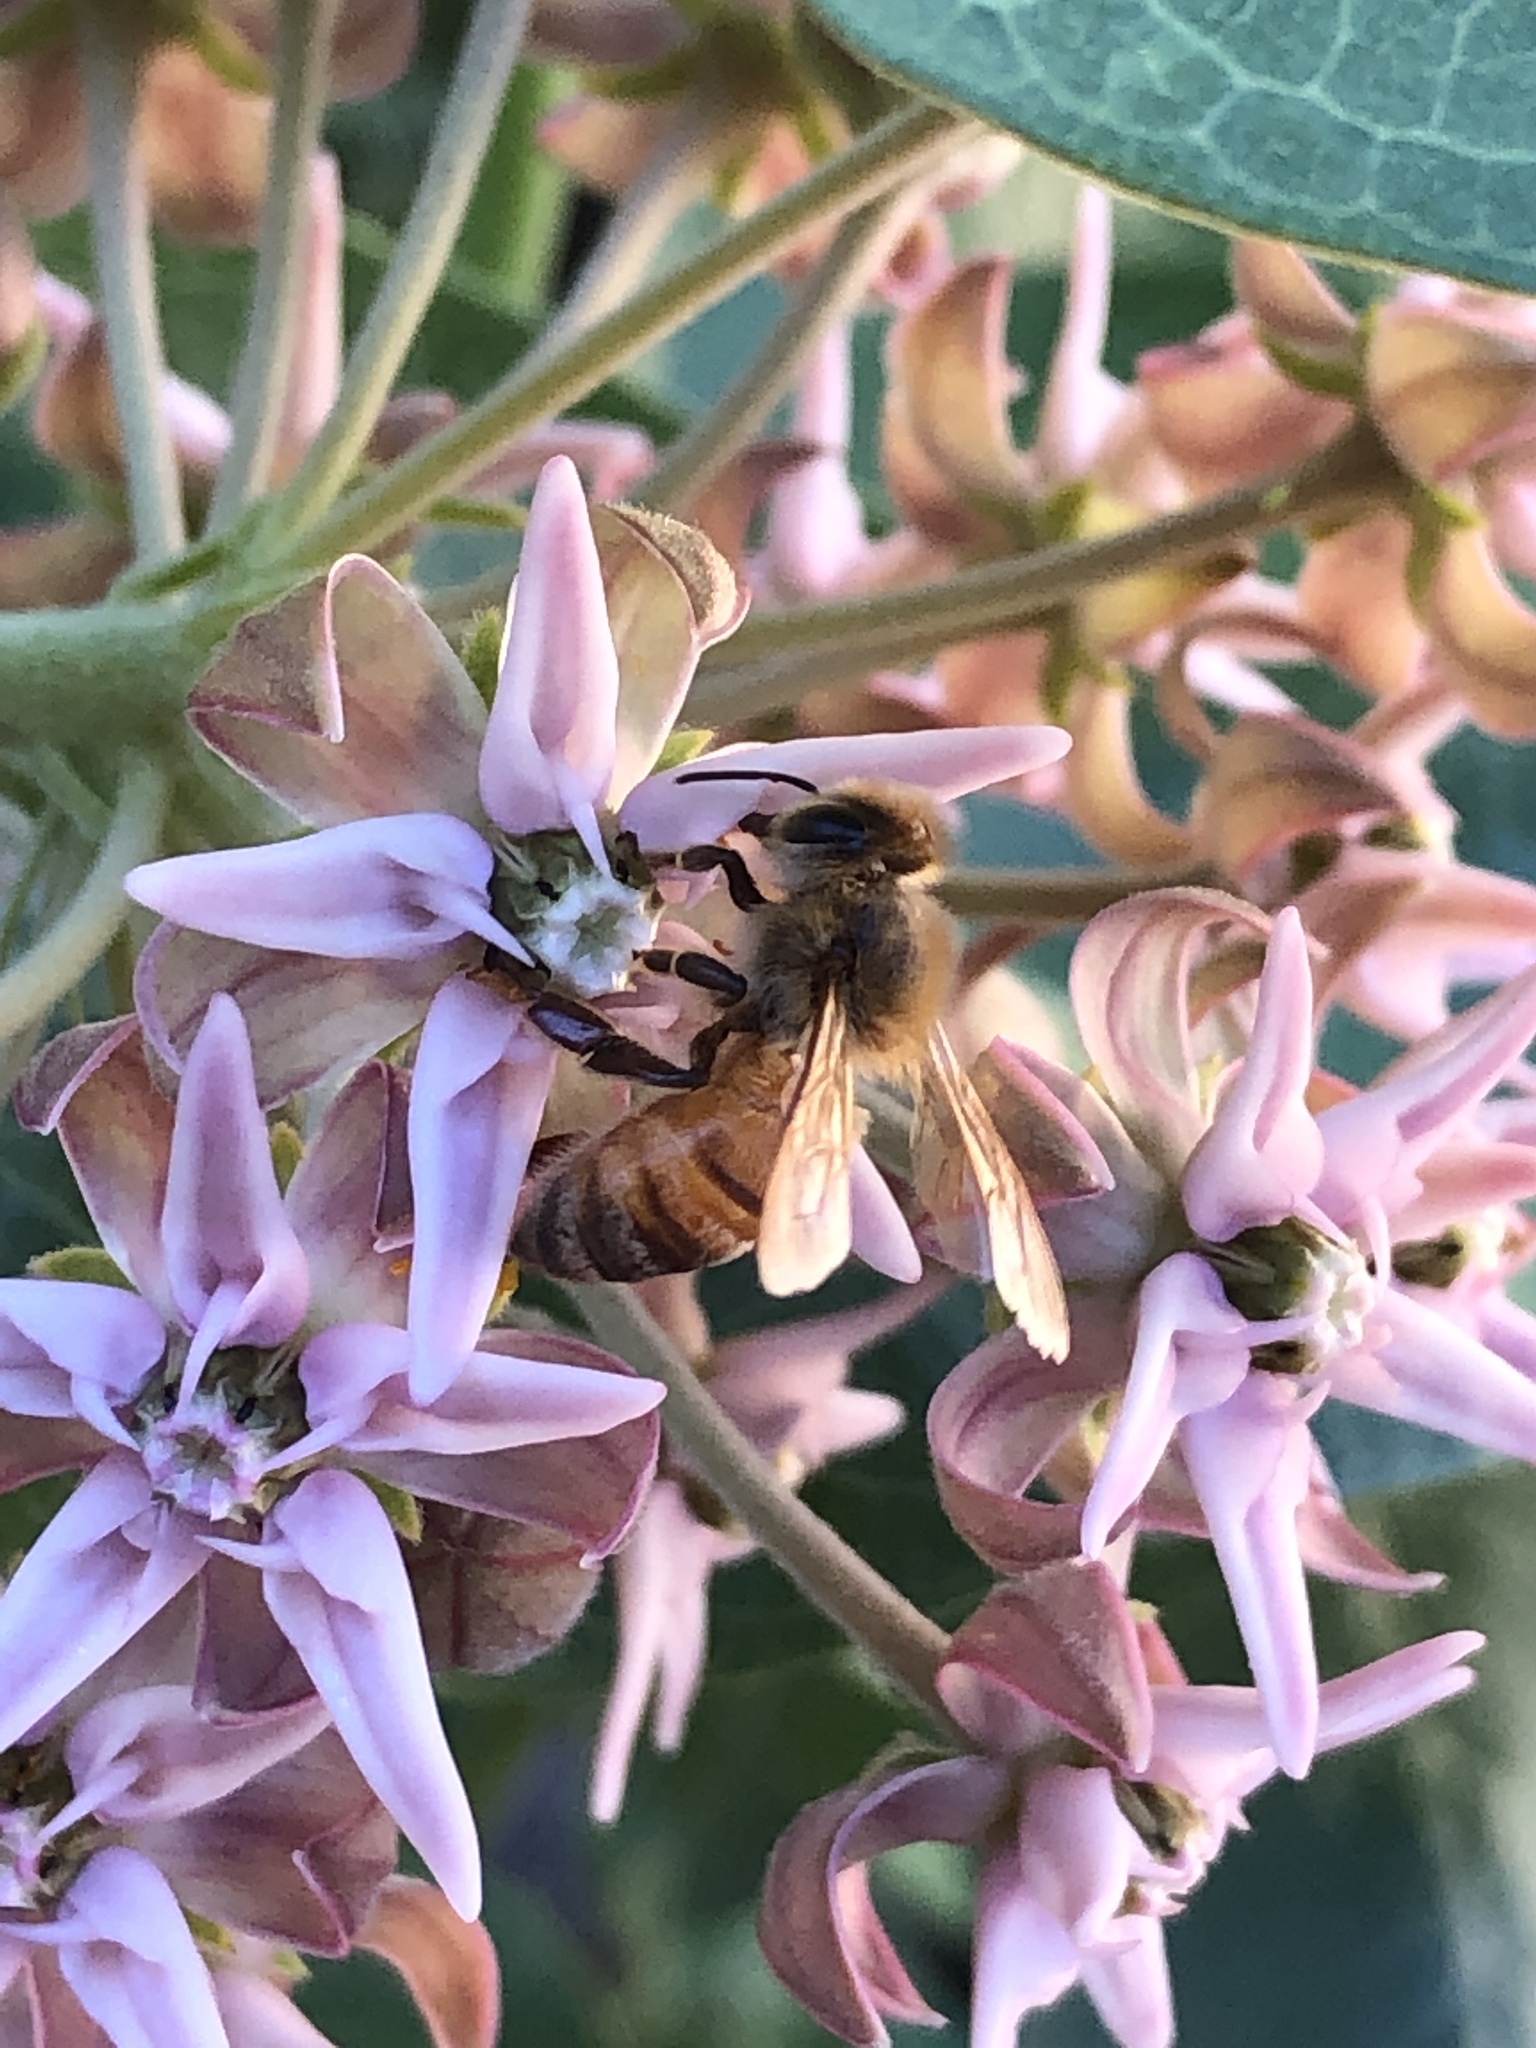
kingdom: Animalia
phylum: Arthropoda
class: Insecta
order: Hymenoptera
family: Apidae
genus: Apis
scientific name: Apis mellifera
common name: Honey bee
